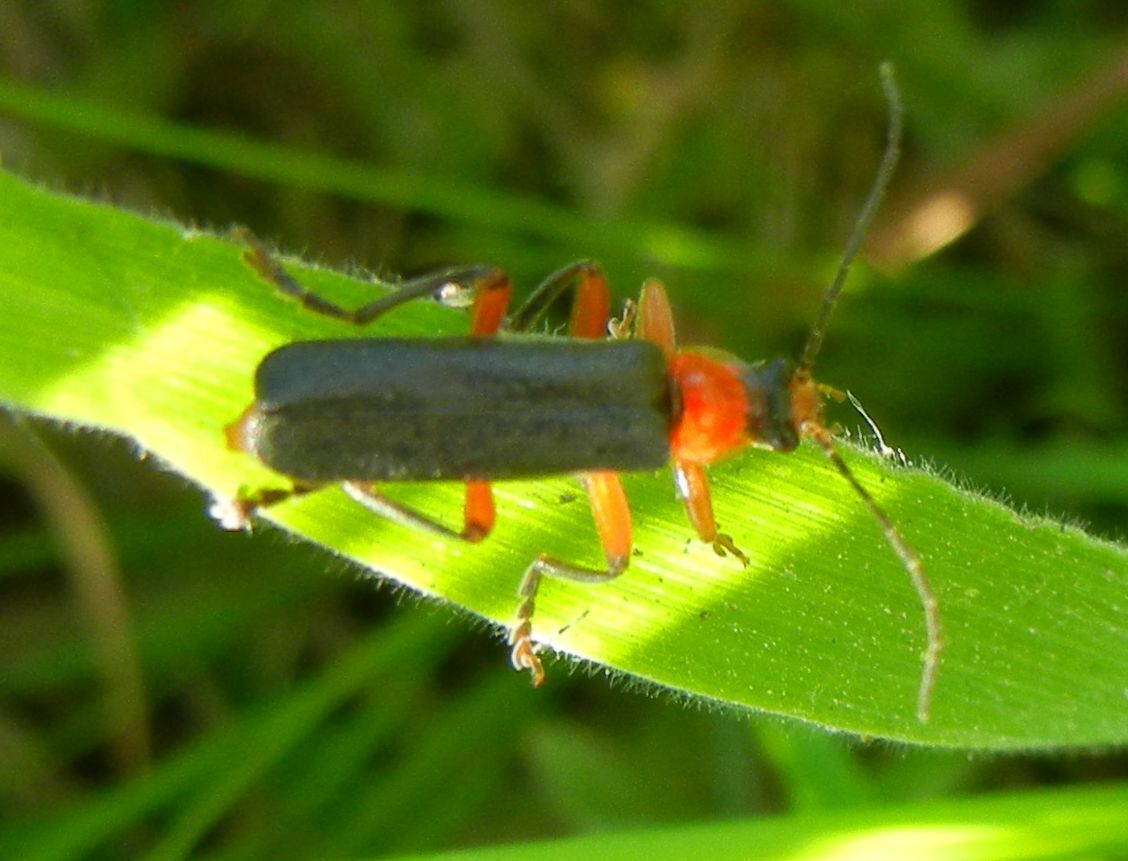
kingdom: Animalia
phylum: Arthropoda
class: Insecta
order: Coleoptera
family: Cantharidae
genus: Cantharis
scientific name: Cantharis pellucida
